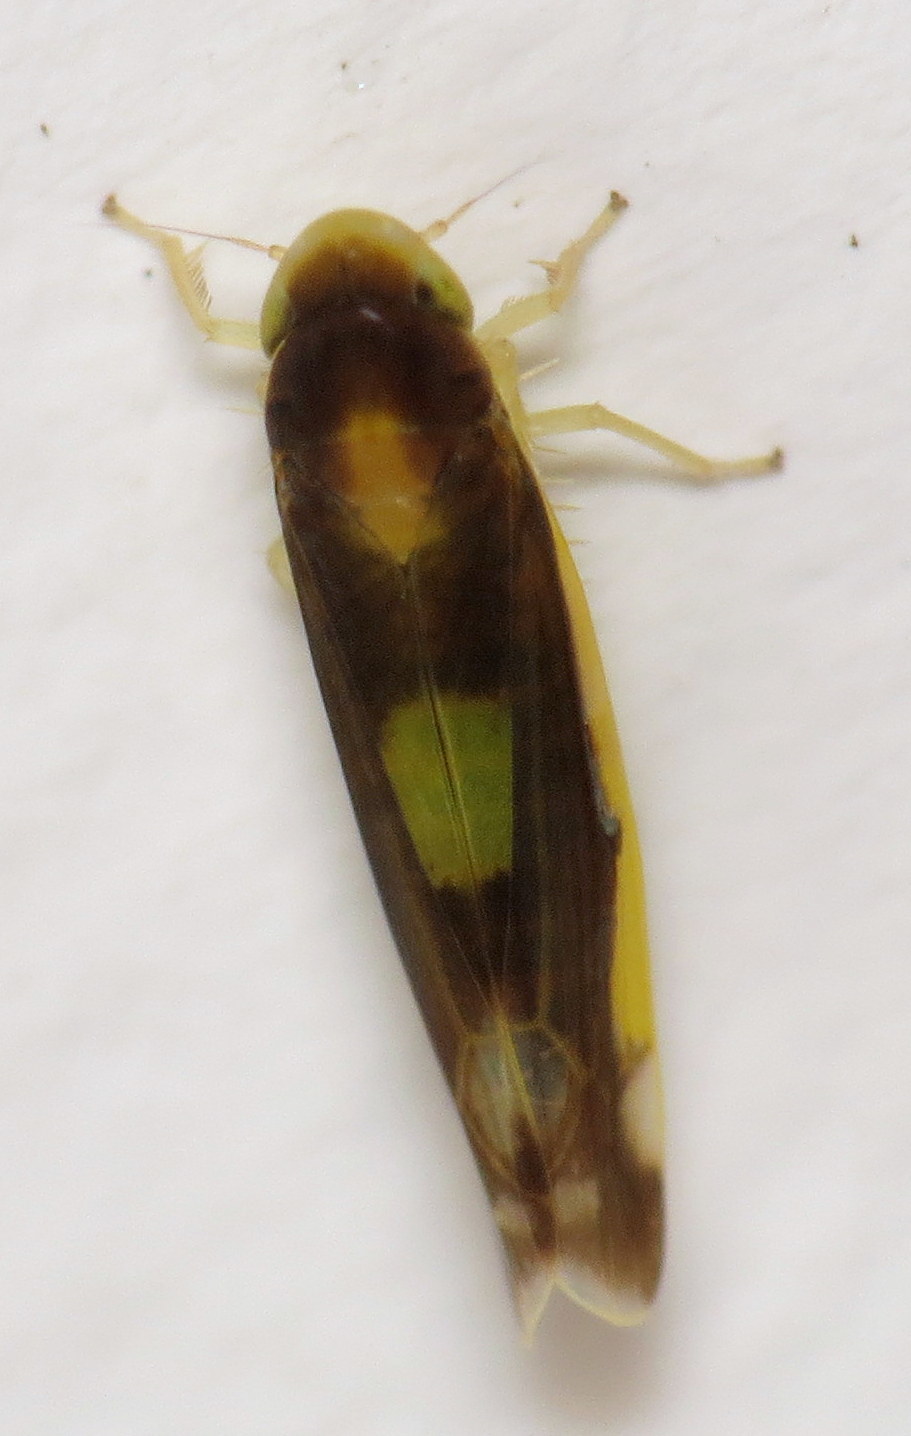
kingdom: Animalia
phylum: Arthropoda
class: Insecta
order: Hemiptera
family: Cicadellidae
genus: Eupteryx
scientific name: Eupteryx flavoscuta
